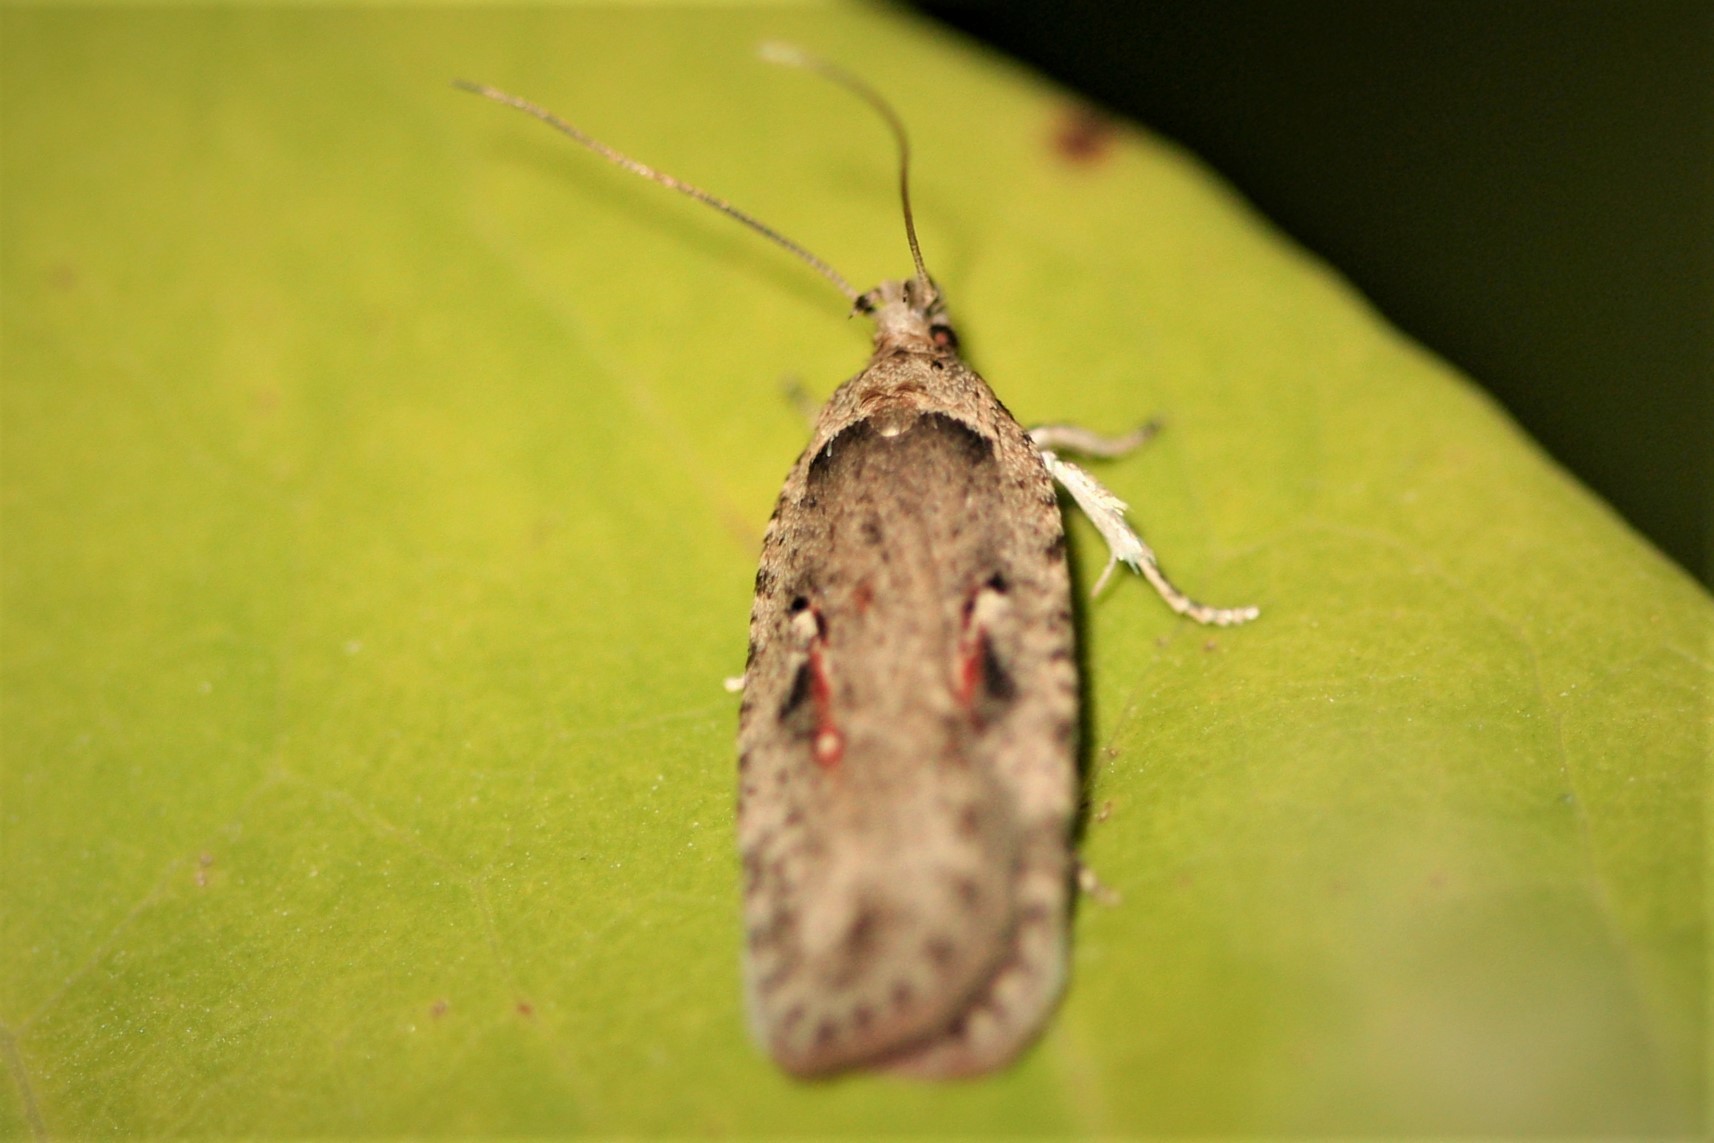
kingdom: Animalia
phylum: Arthropoda
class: Insecta
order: Lepidoptera
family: Depressariidae
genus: Agonopterix
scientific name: Agonopterix ocellana
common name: Red-letter flat-body
